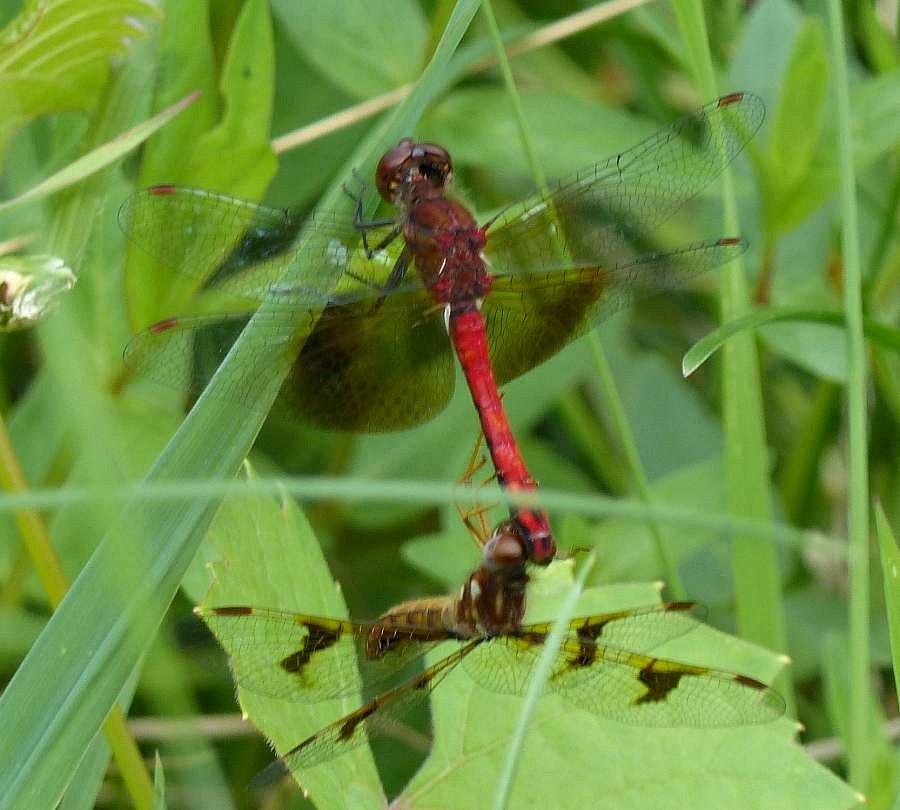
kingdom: Animalia
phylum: Arthropoda
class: Insecta
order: Odonata
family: Libellulidae
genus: Sympetrum
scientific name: Sympetrum semicinctum
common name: Band-winged meadowhawk
